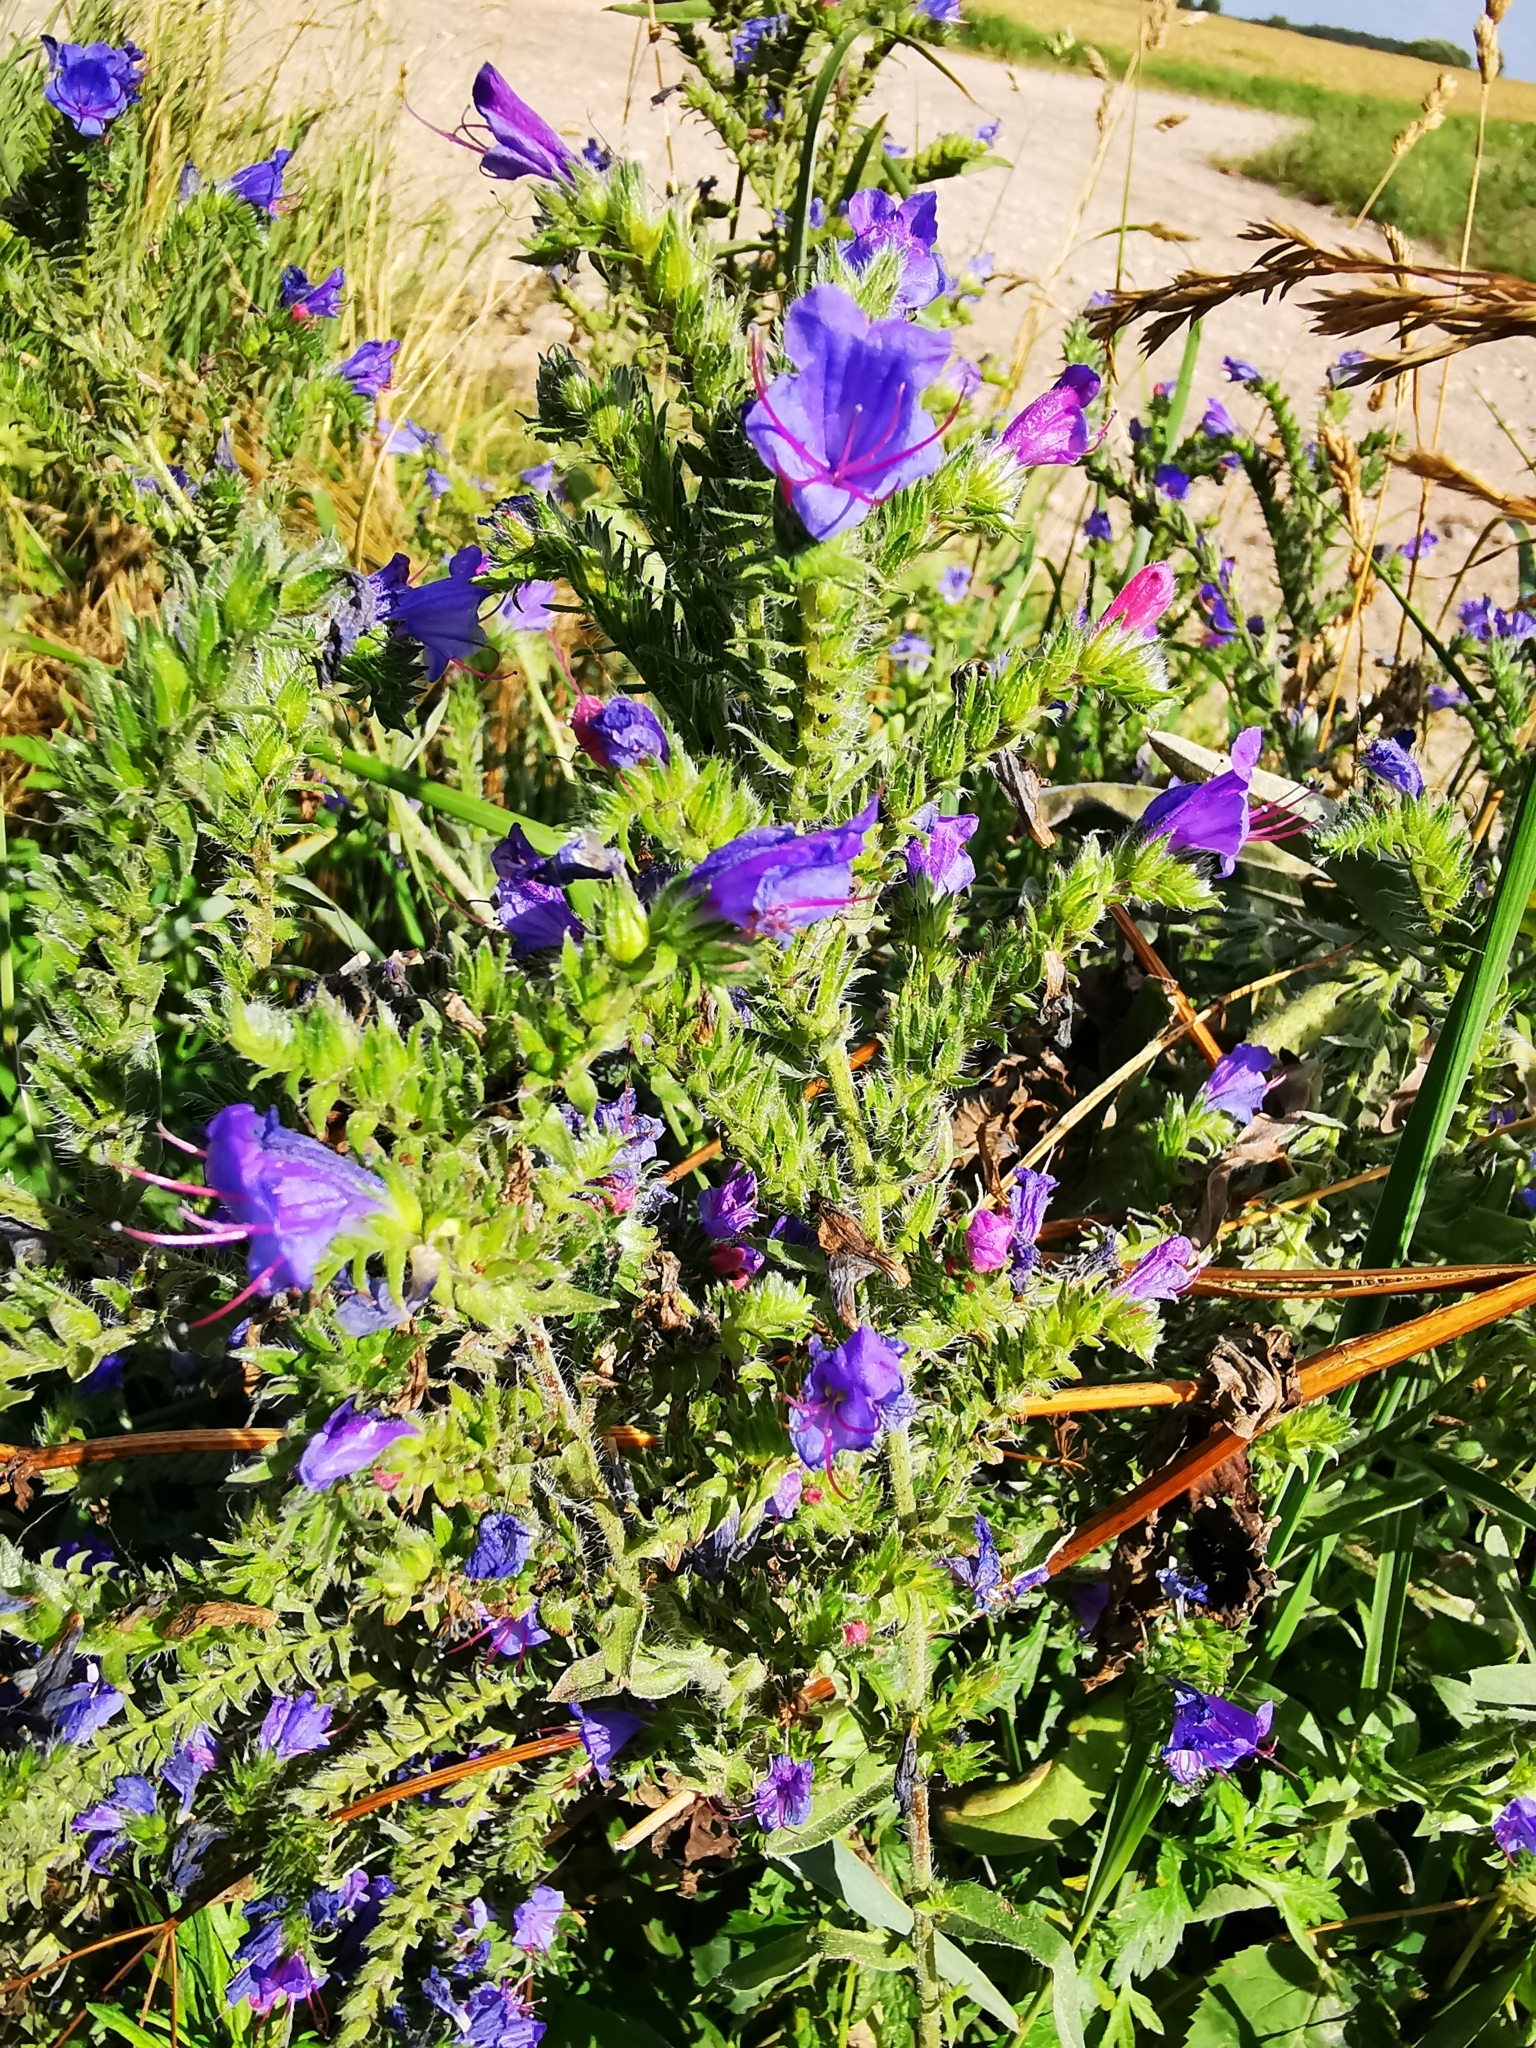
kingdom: Plantae
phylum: Tracheophyta
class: Magnoliopsida
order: Boraginales
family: Boraginaceae
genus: Echium
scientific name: Echium vulgare
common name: Common viper's bugloss
